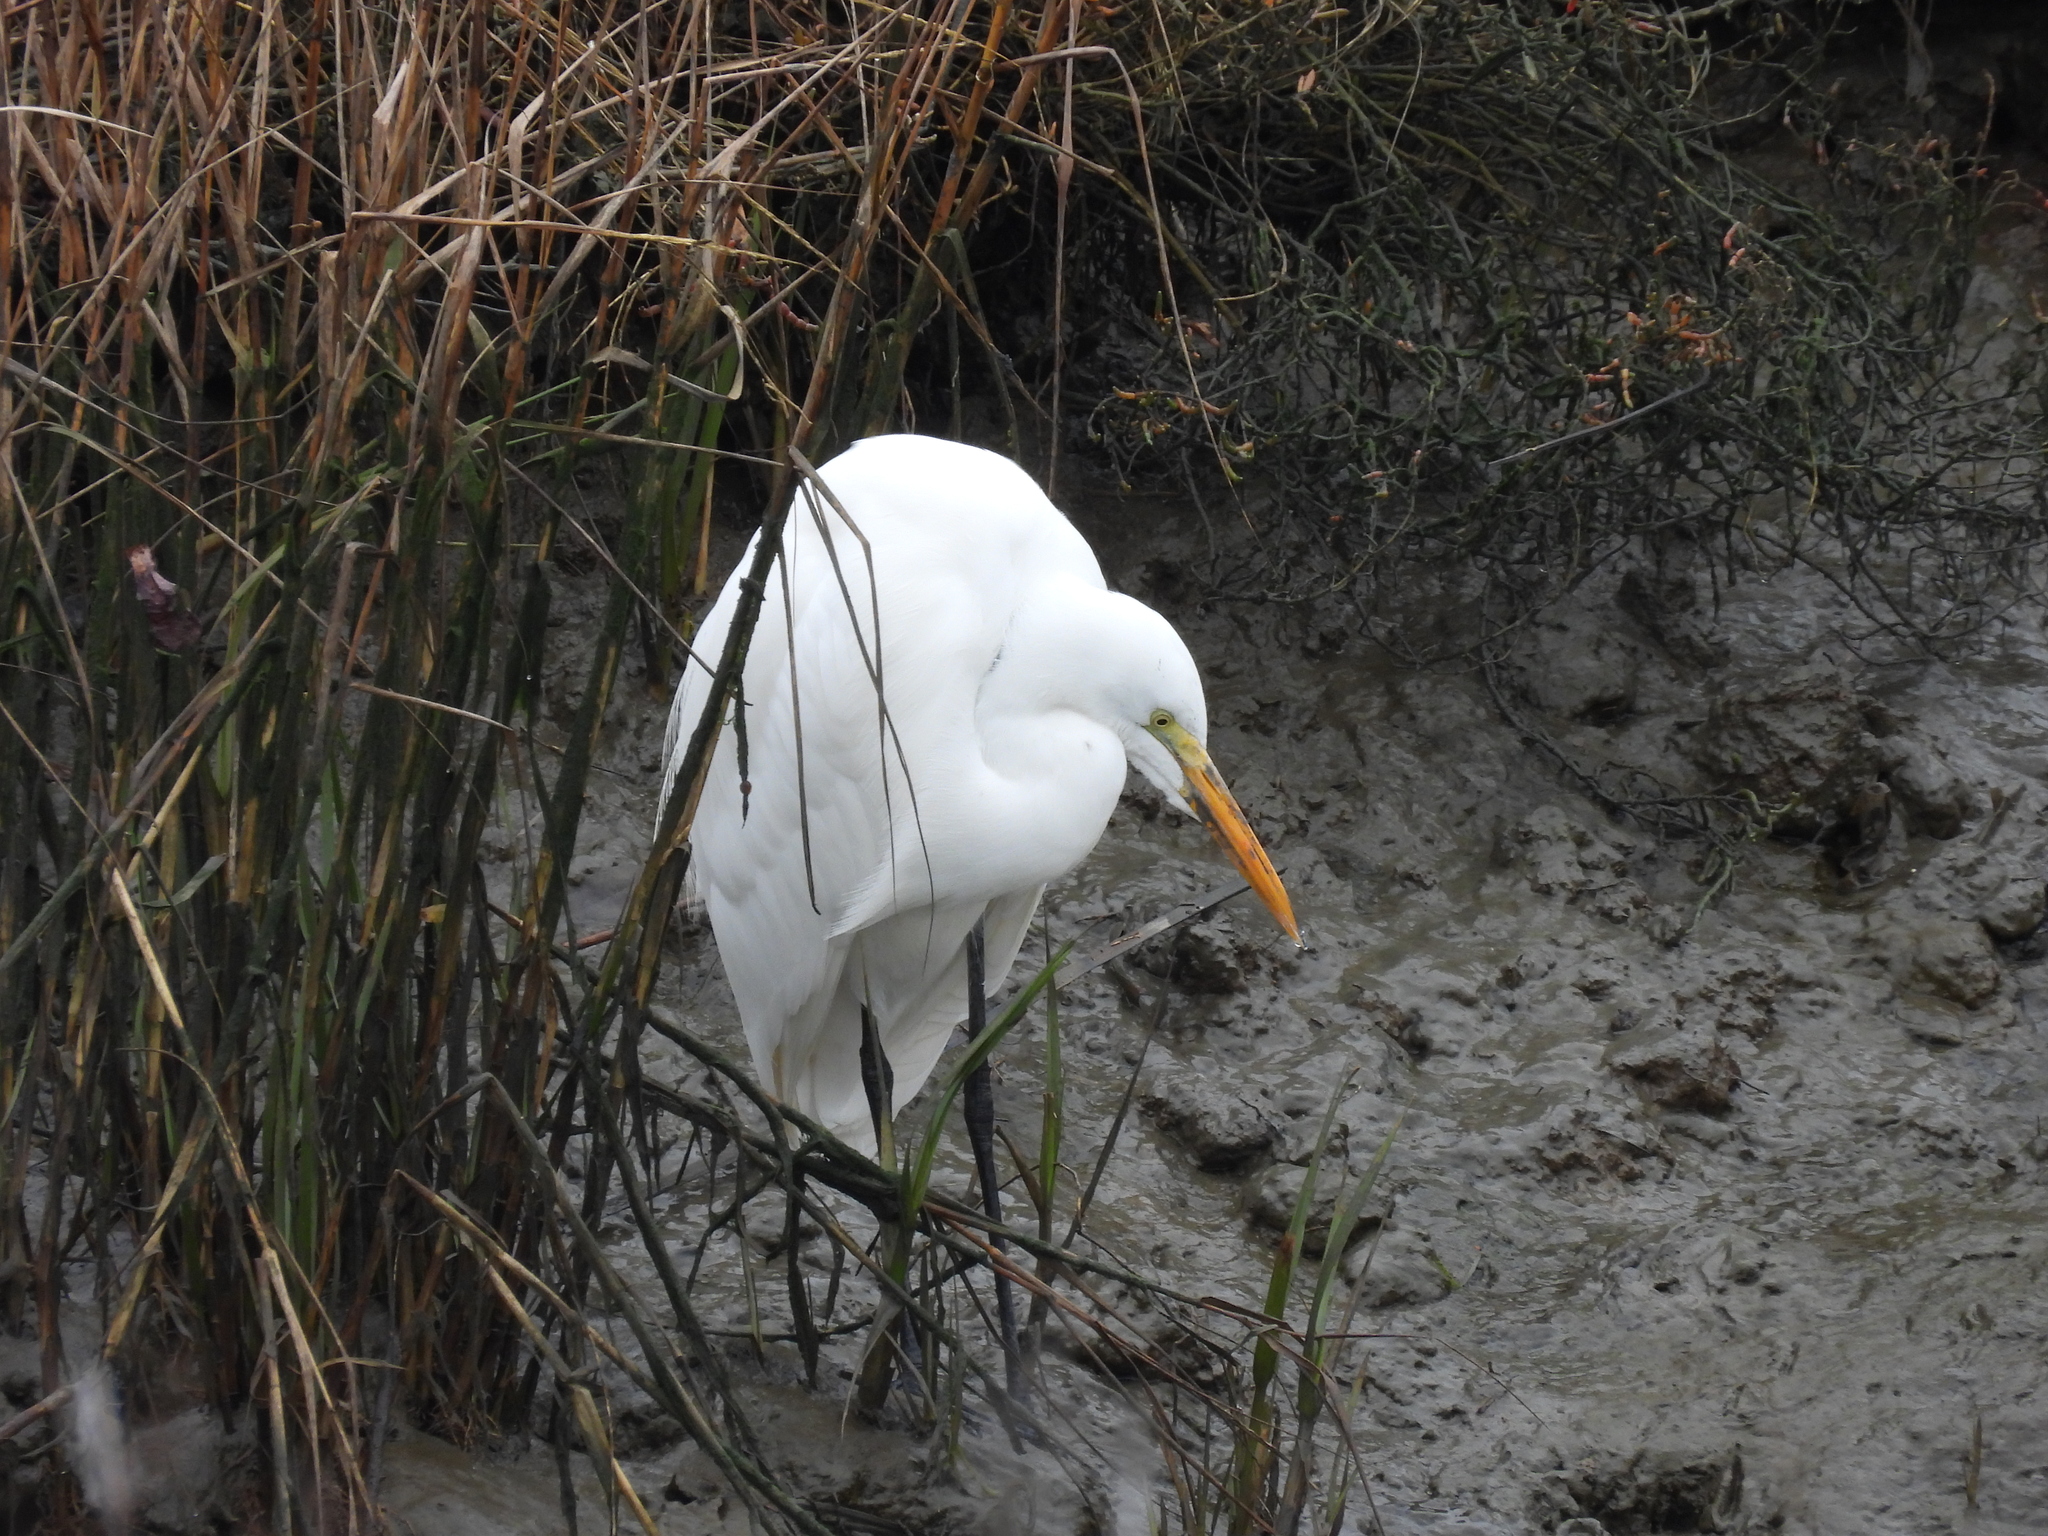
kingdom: Animalia
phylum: Chordata
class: Aves
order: Pelecaniformes
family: Ardeidae
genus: Ardea
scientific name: Ardea alba
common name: Great egret
